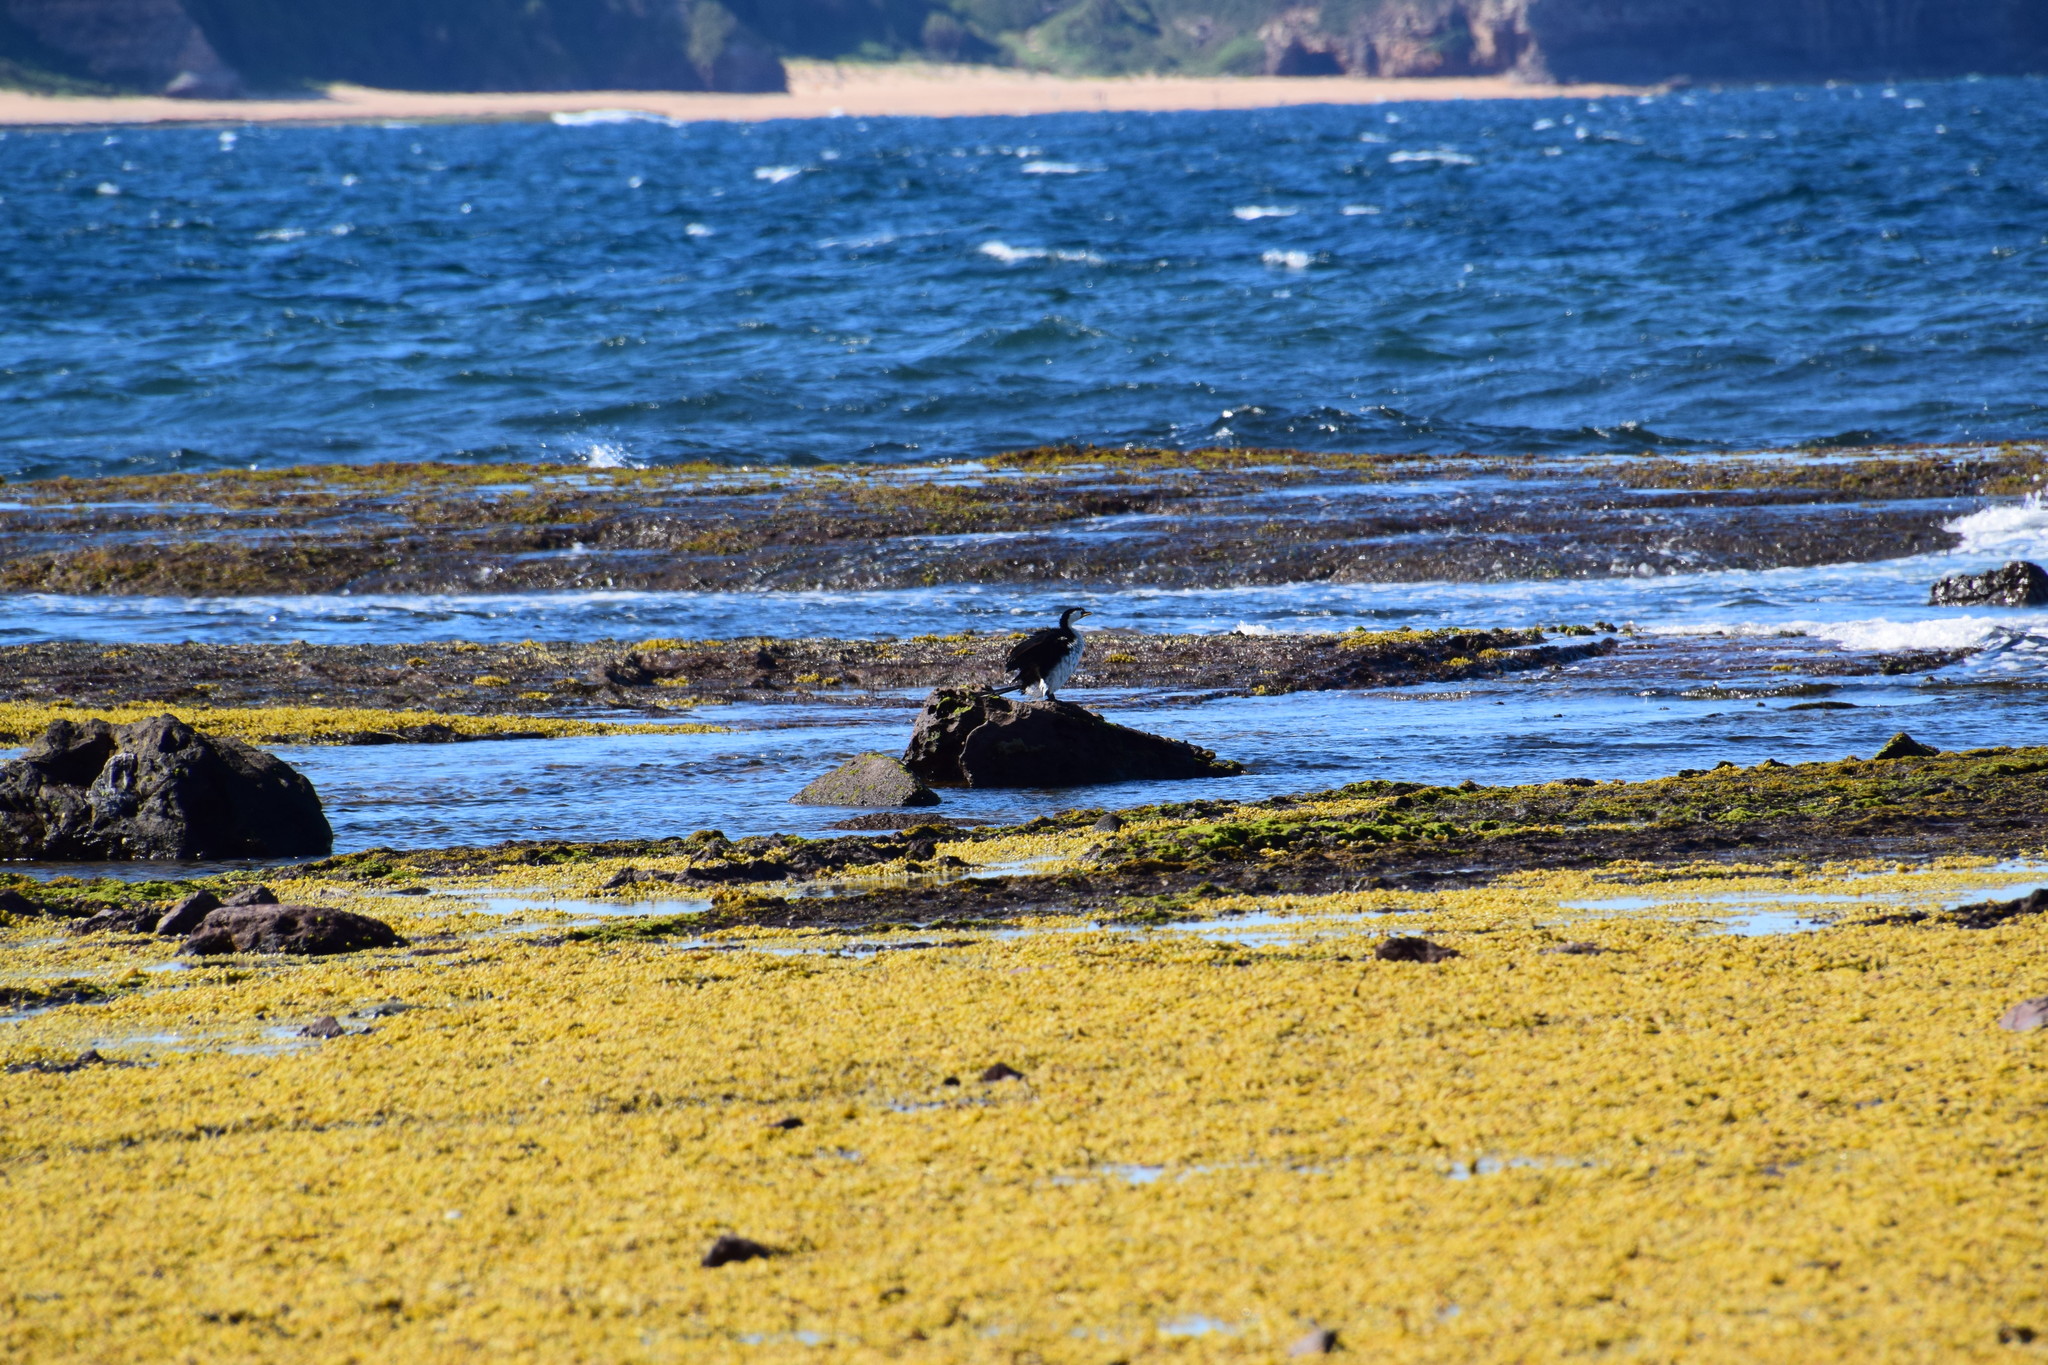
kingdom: Animalia
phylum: Chordata
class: Aves
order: Suliformes
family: Phalacrocoracidae
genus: Microcarbo
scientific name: Microcarbo melanoleucos
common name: Little pied cormorant
